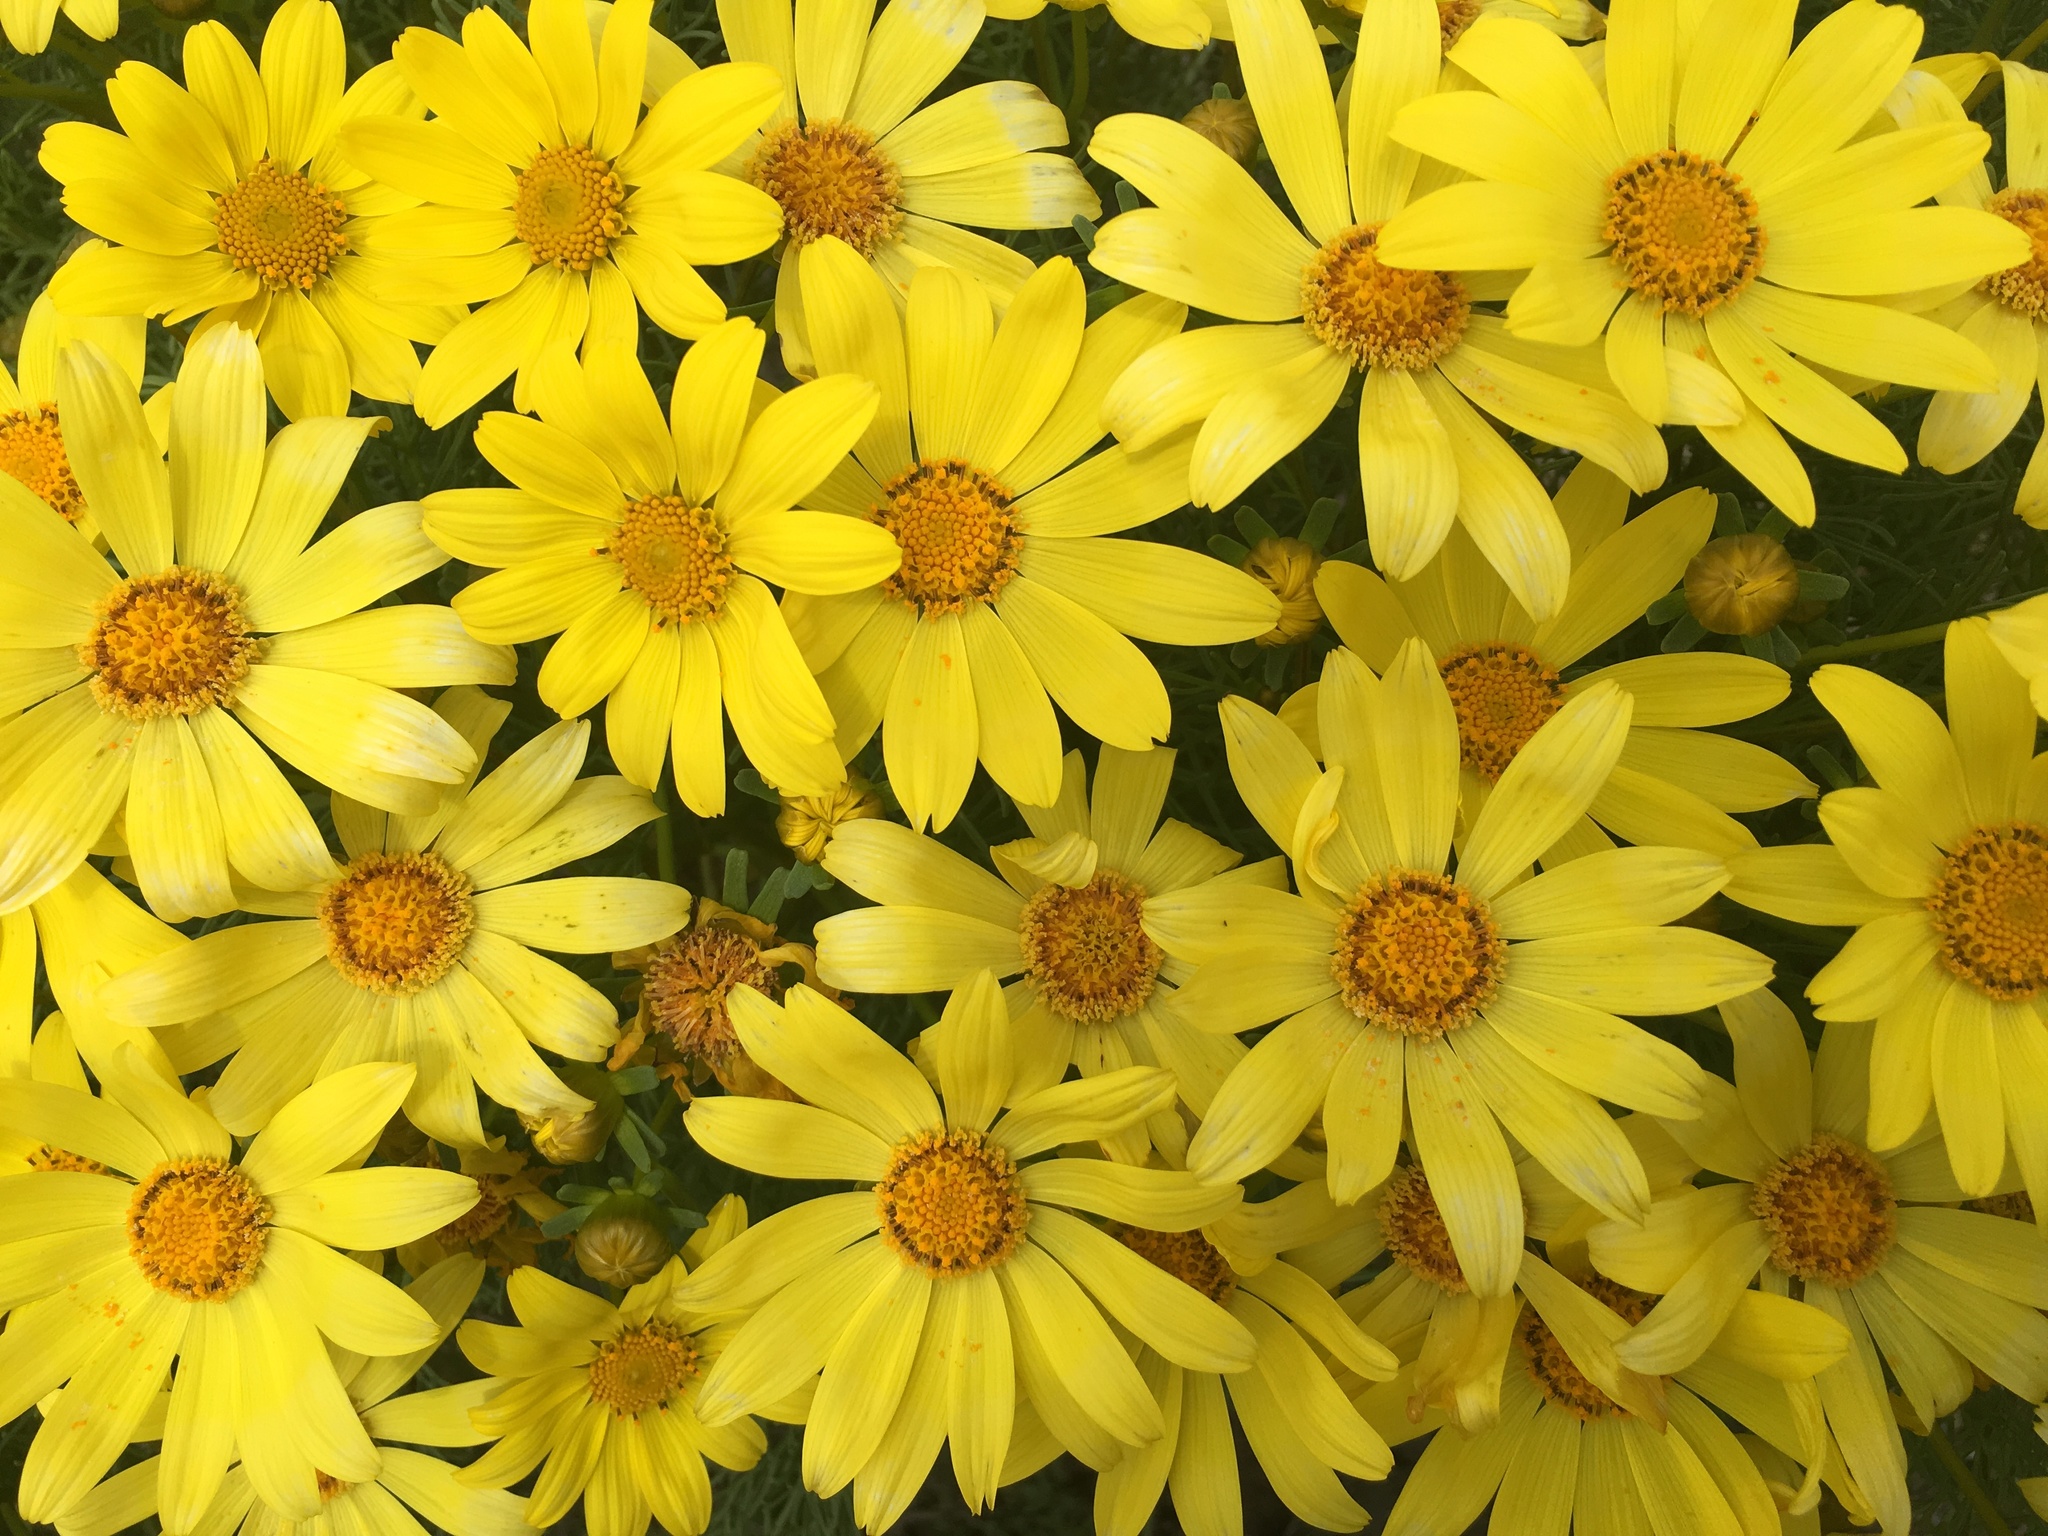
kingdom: Plantae
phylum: Tracheophyta
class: Magnoliopsida
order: Asterales
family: Asteraceae
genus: Coreopsis
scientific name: Coreopsis gigantea
